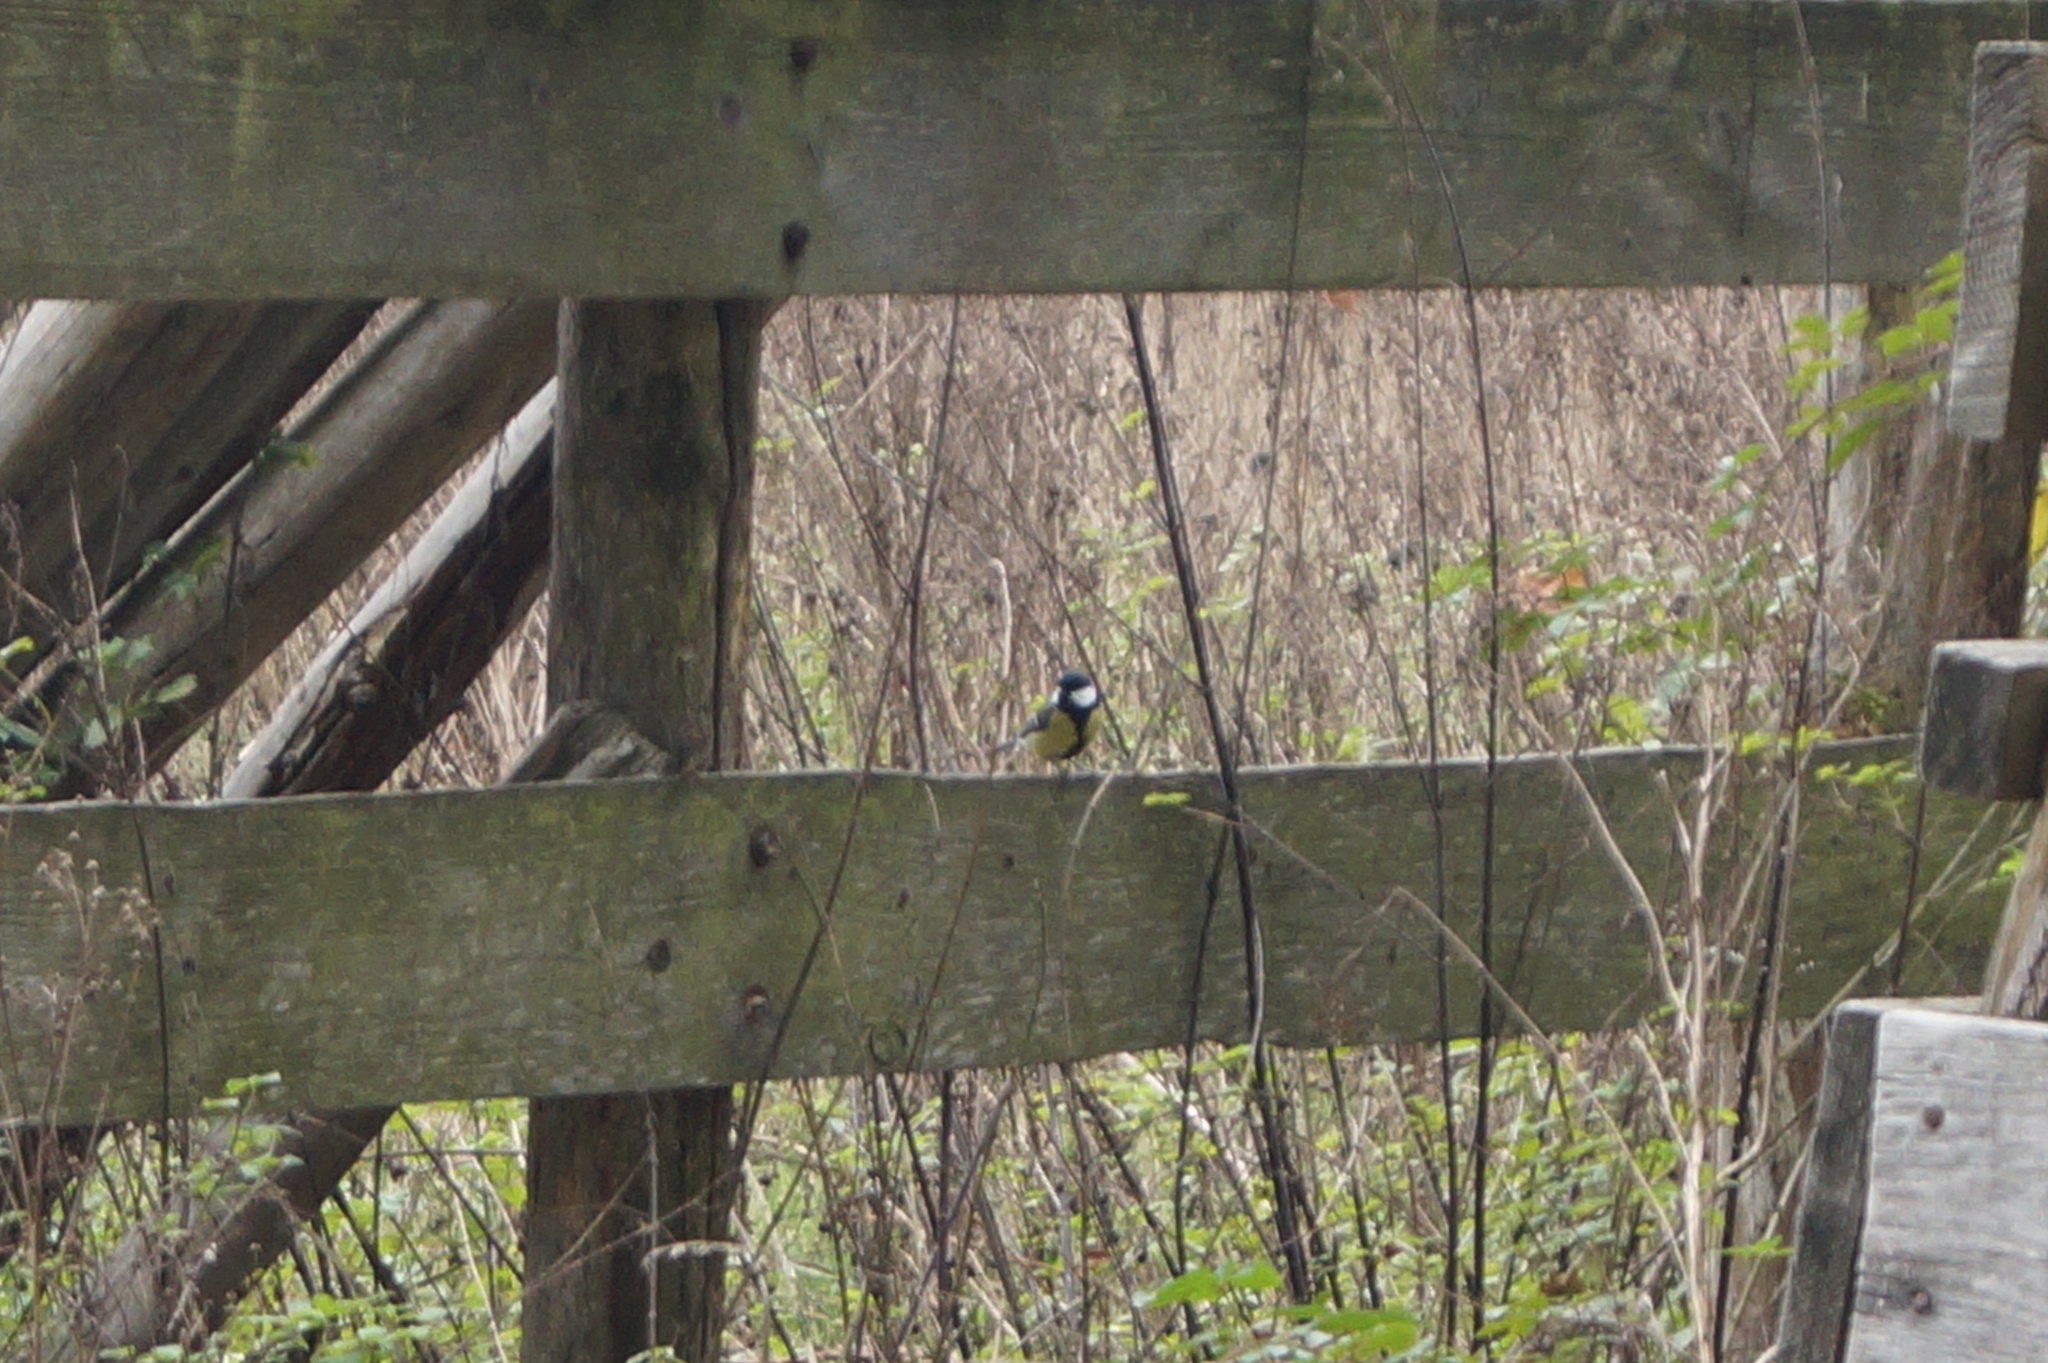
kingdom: Animalia
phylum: Chordata
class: Aves
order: Passeriformes
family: Paridae
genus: Parus
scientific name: Parus major
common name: Great tit
